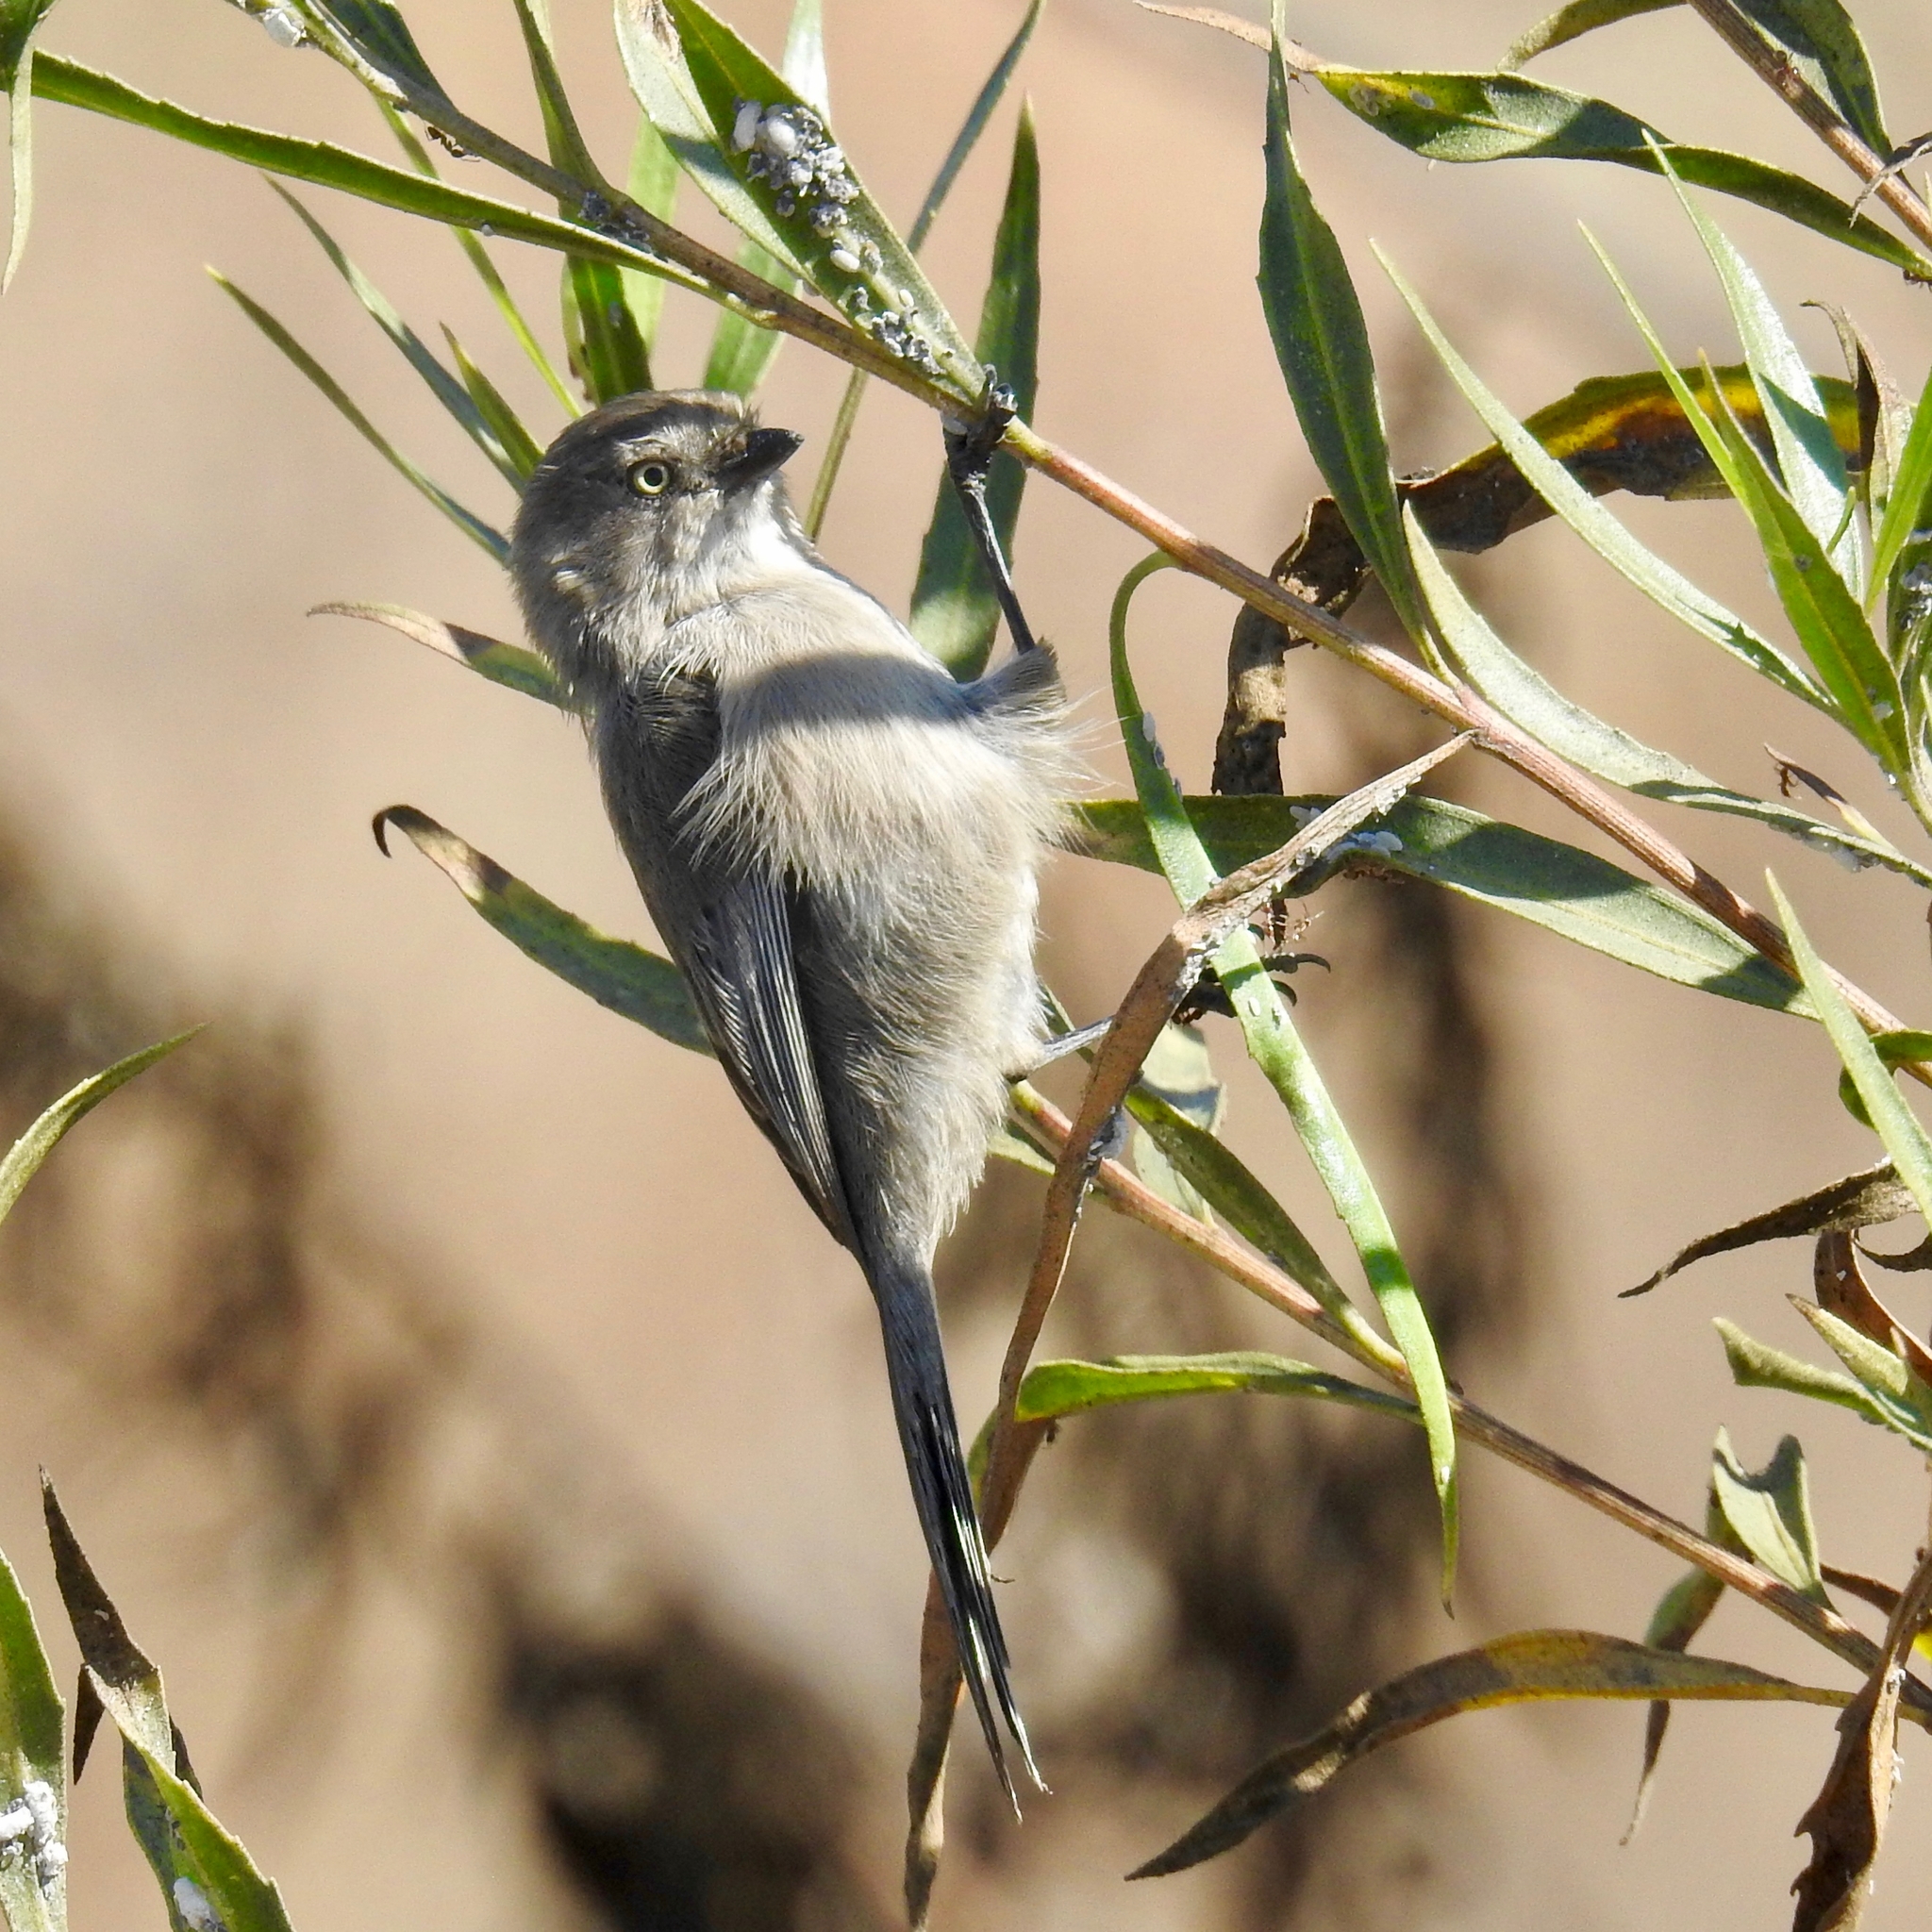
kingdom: Animalia
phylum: Chordata
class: Aves
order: Passeriformes
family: Aegithalidae
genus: Psaltriparus
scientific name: Psaltriparus minimus
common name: American bushtit
